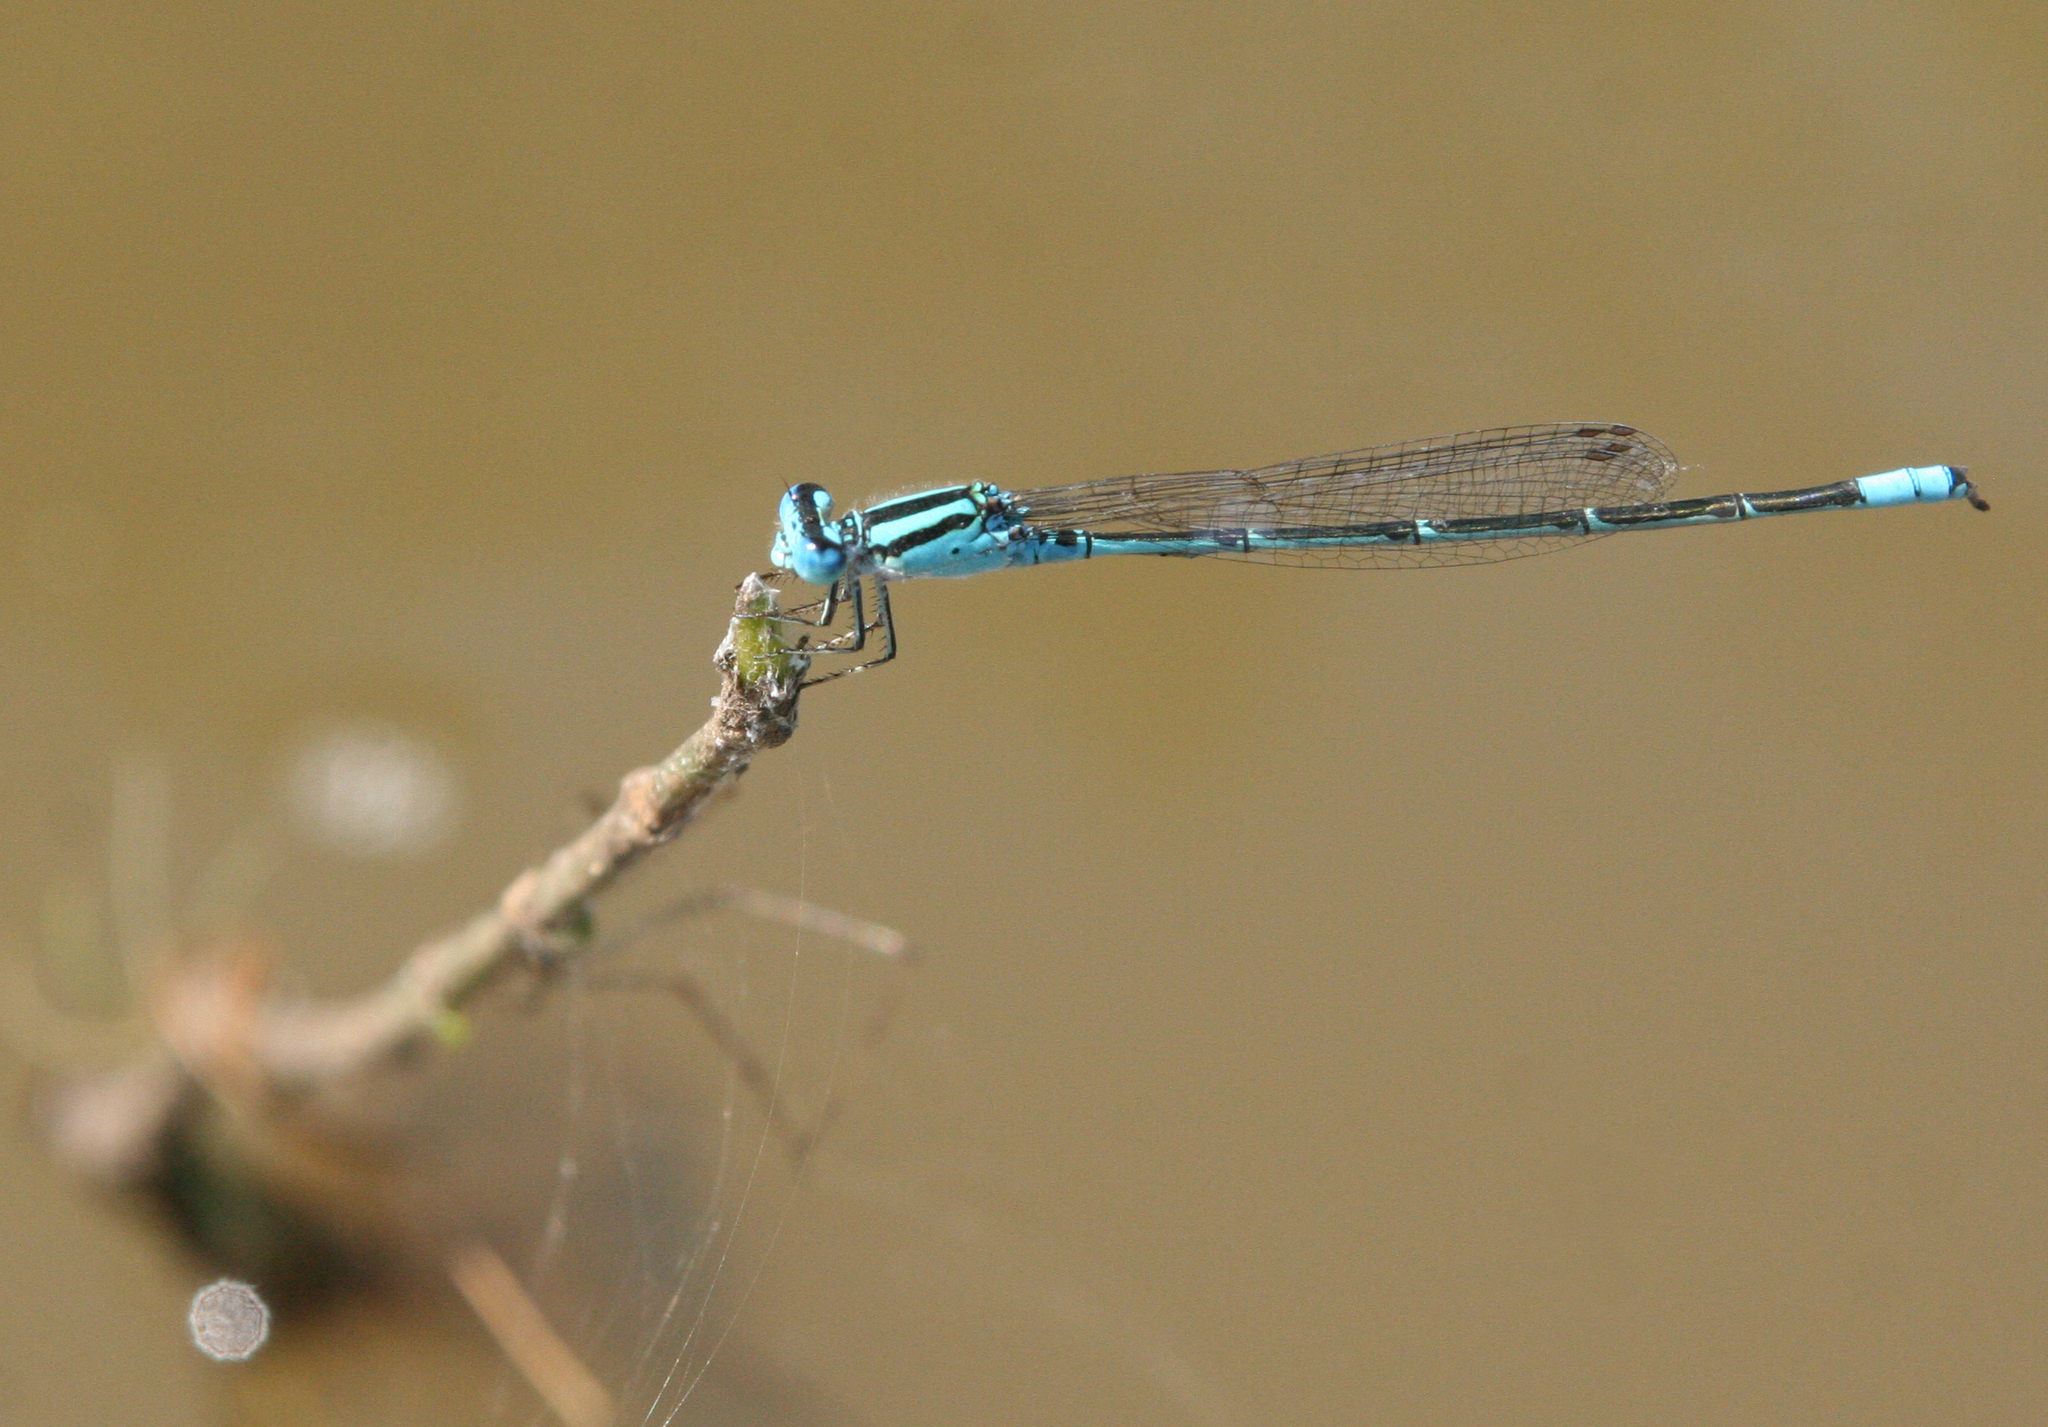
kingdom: Animalia
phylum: Arthropoda
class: Insecta
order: Odonata
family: Coenagrionidae
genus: Pseudagrion
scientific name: Pseudagrion australasiae
